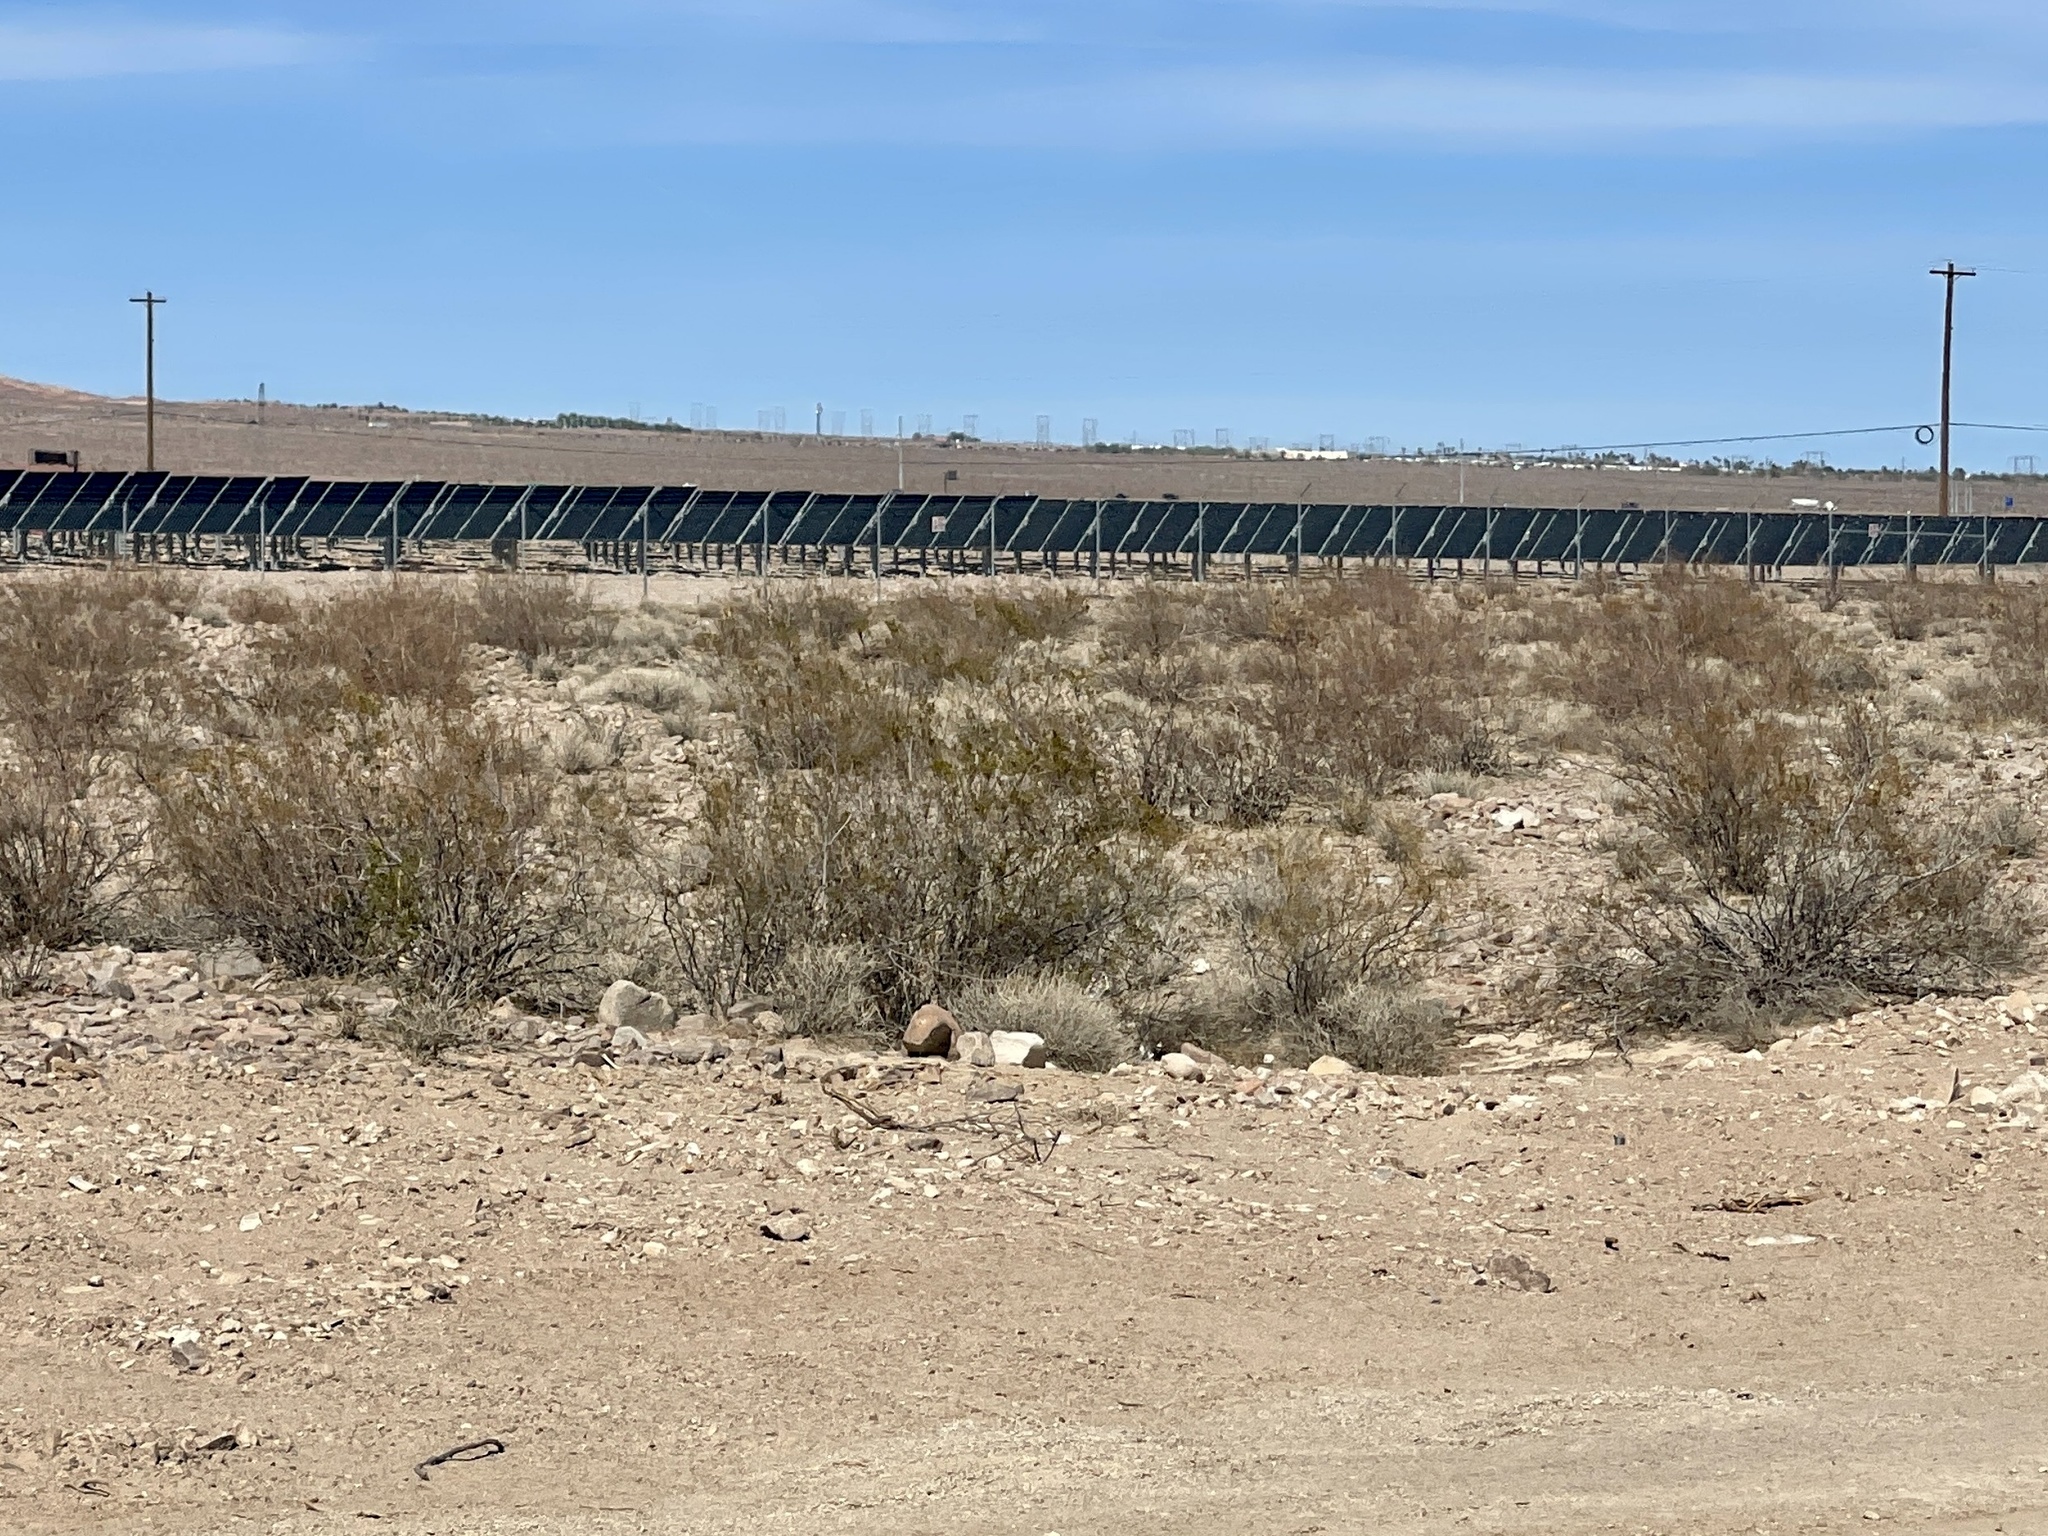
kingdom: Plantae
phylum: Tracheophyta
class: Magnoliopsida
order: Zygophyllales
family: Zygophyllaceae
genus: Larrea
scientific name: Larrea tridentata
